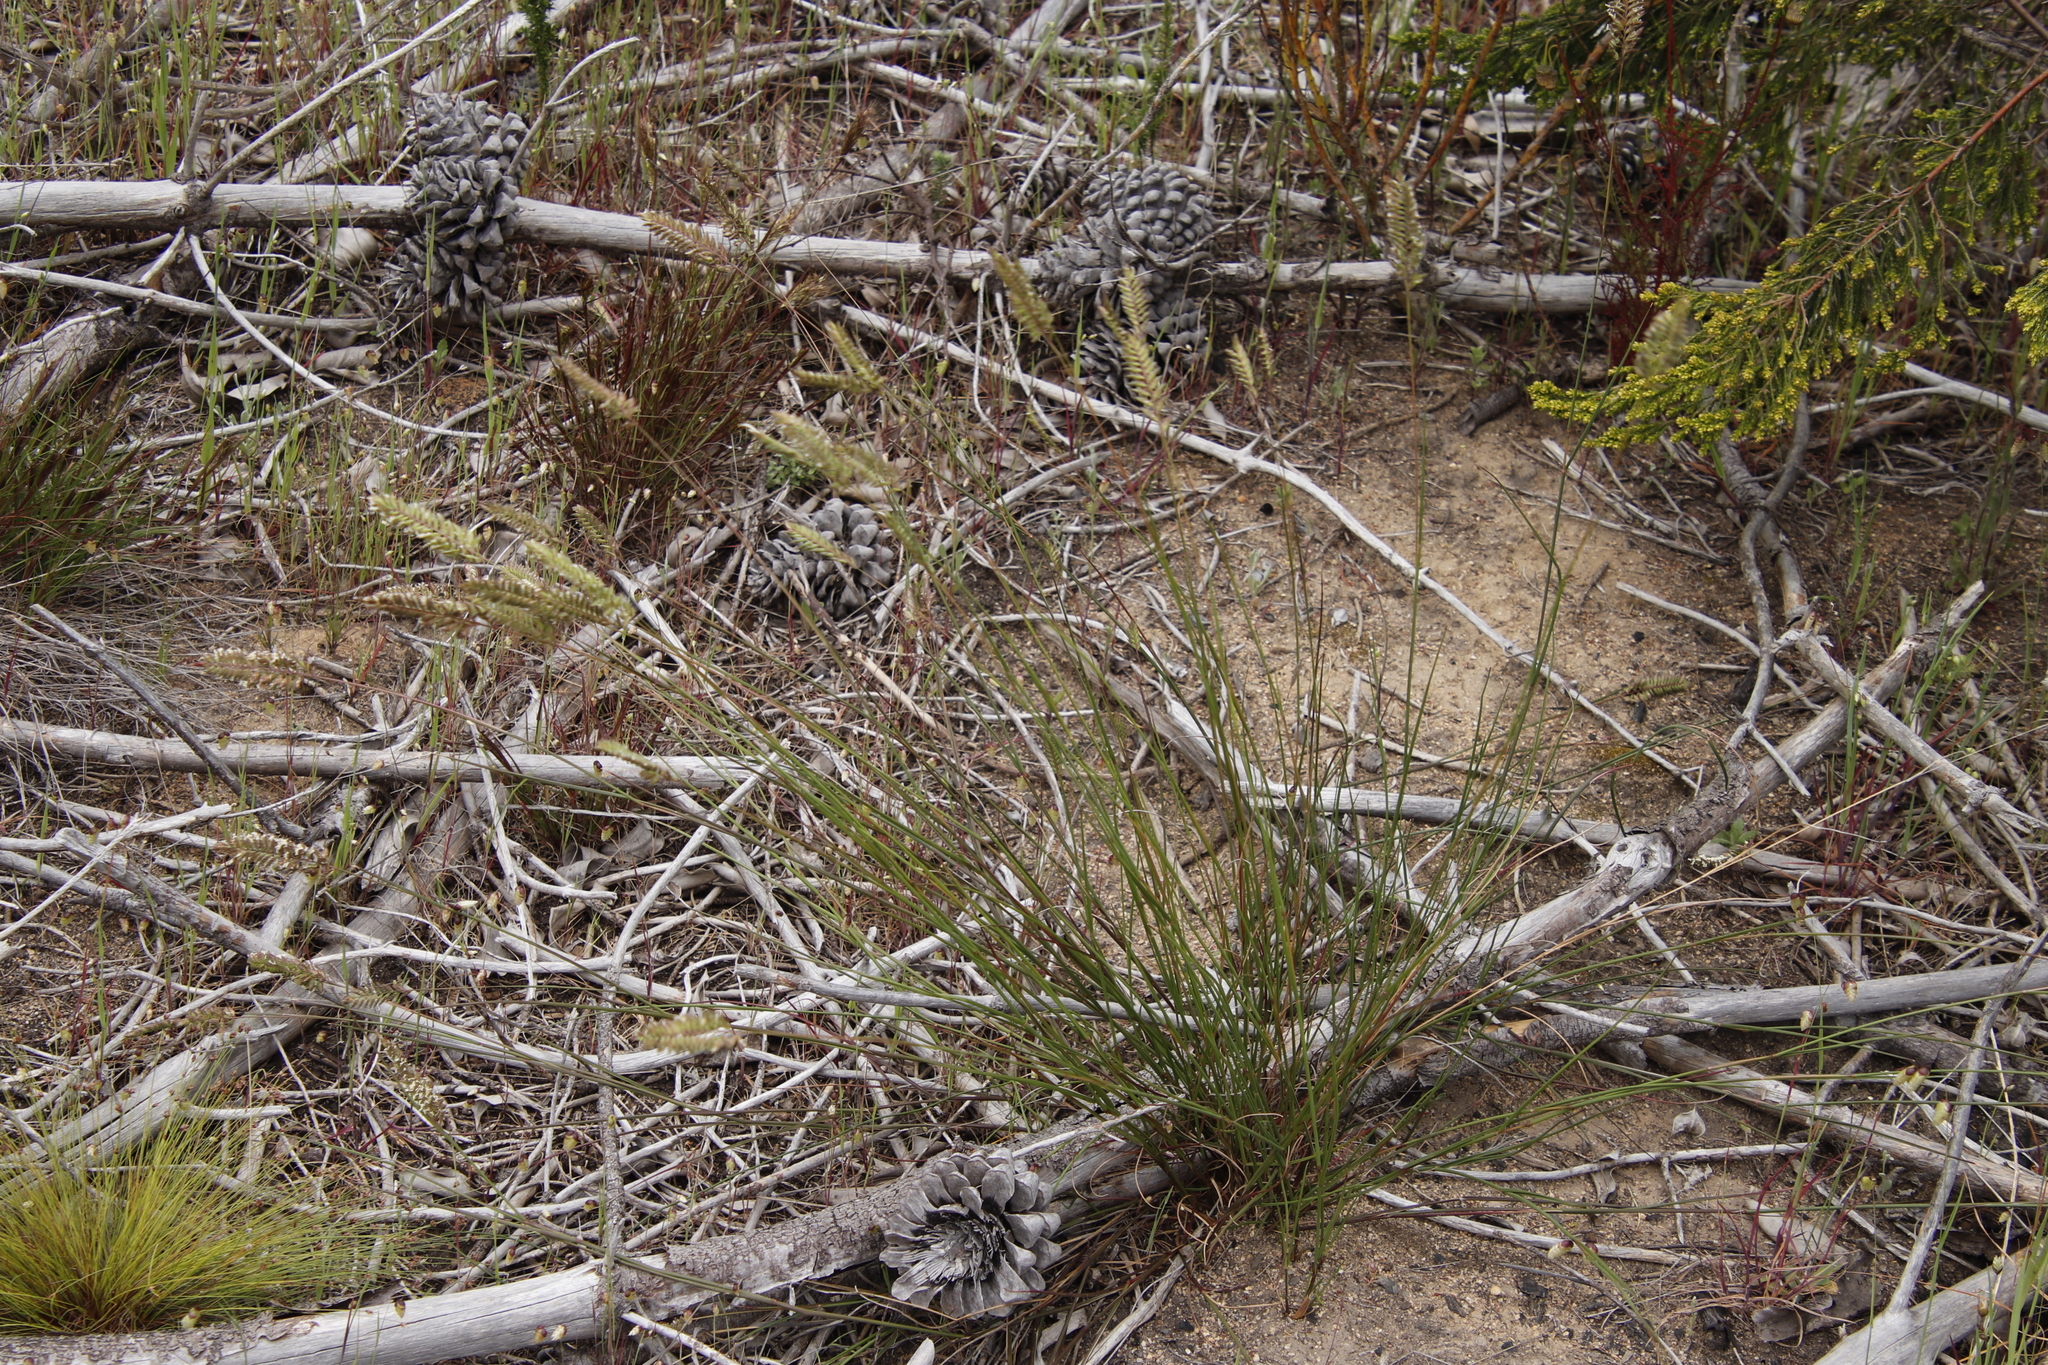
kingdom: Plantae
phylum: Tracheophyta
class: Liliopsida
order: Poales
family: Poaceae
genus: Tribolium
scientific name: Tribolium uniolae
